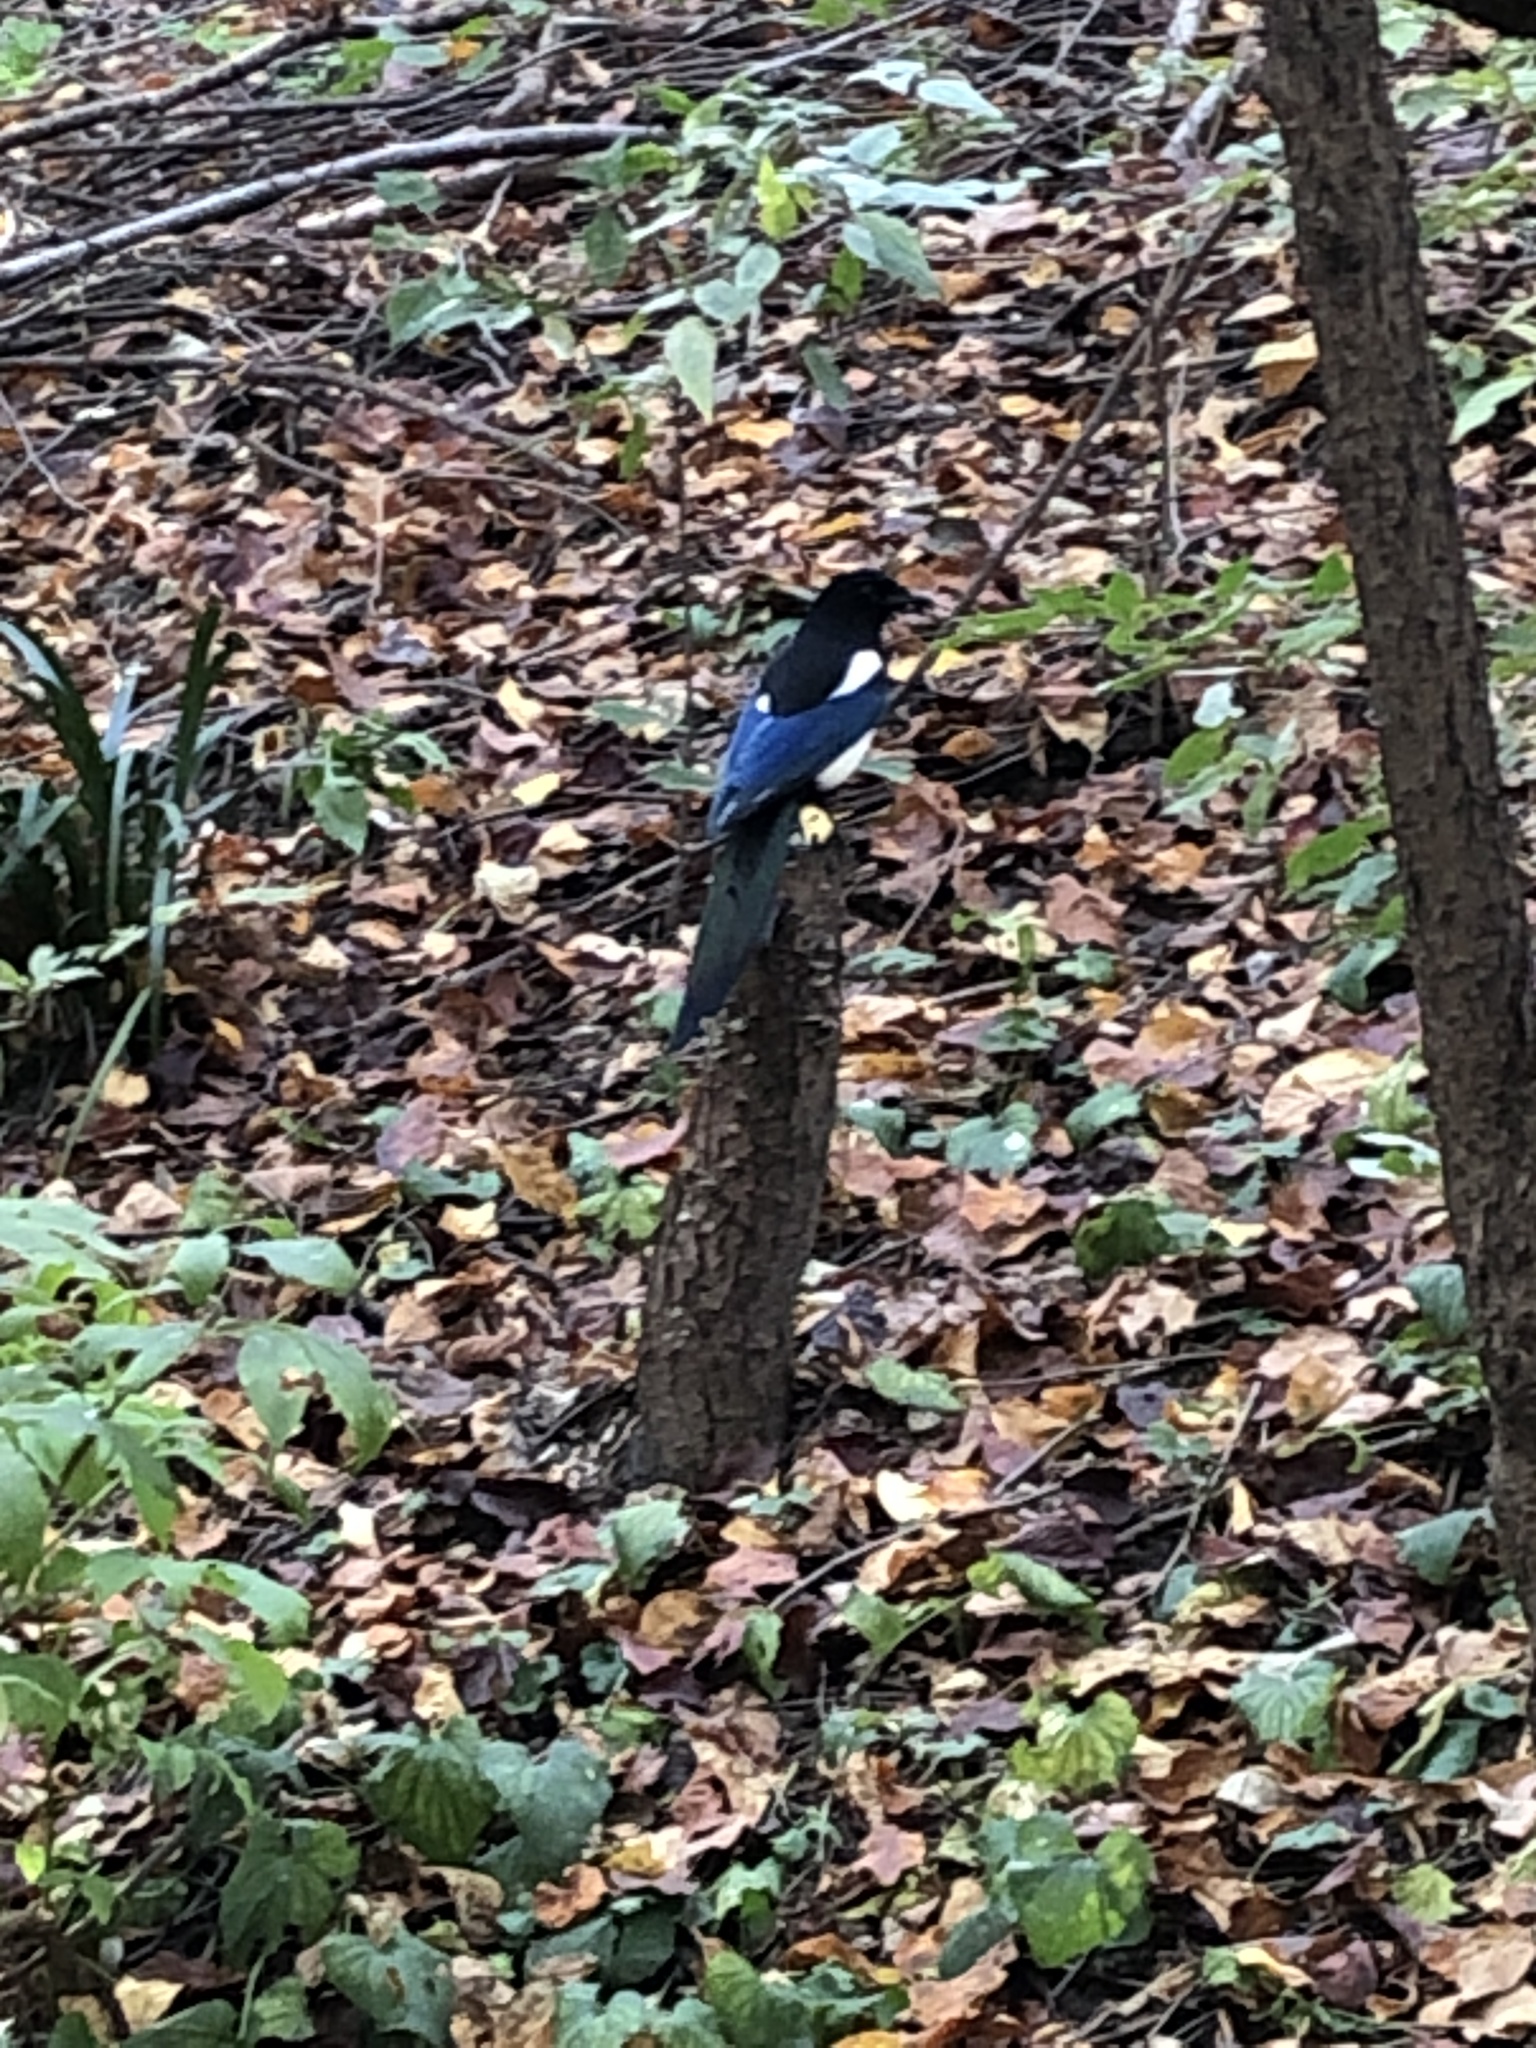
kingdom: Animalia
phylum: Chordata
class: Aves
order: Passeriformes
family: Corvidae
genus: Pica
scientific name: Pica serica
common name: Oriental magpie
